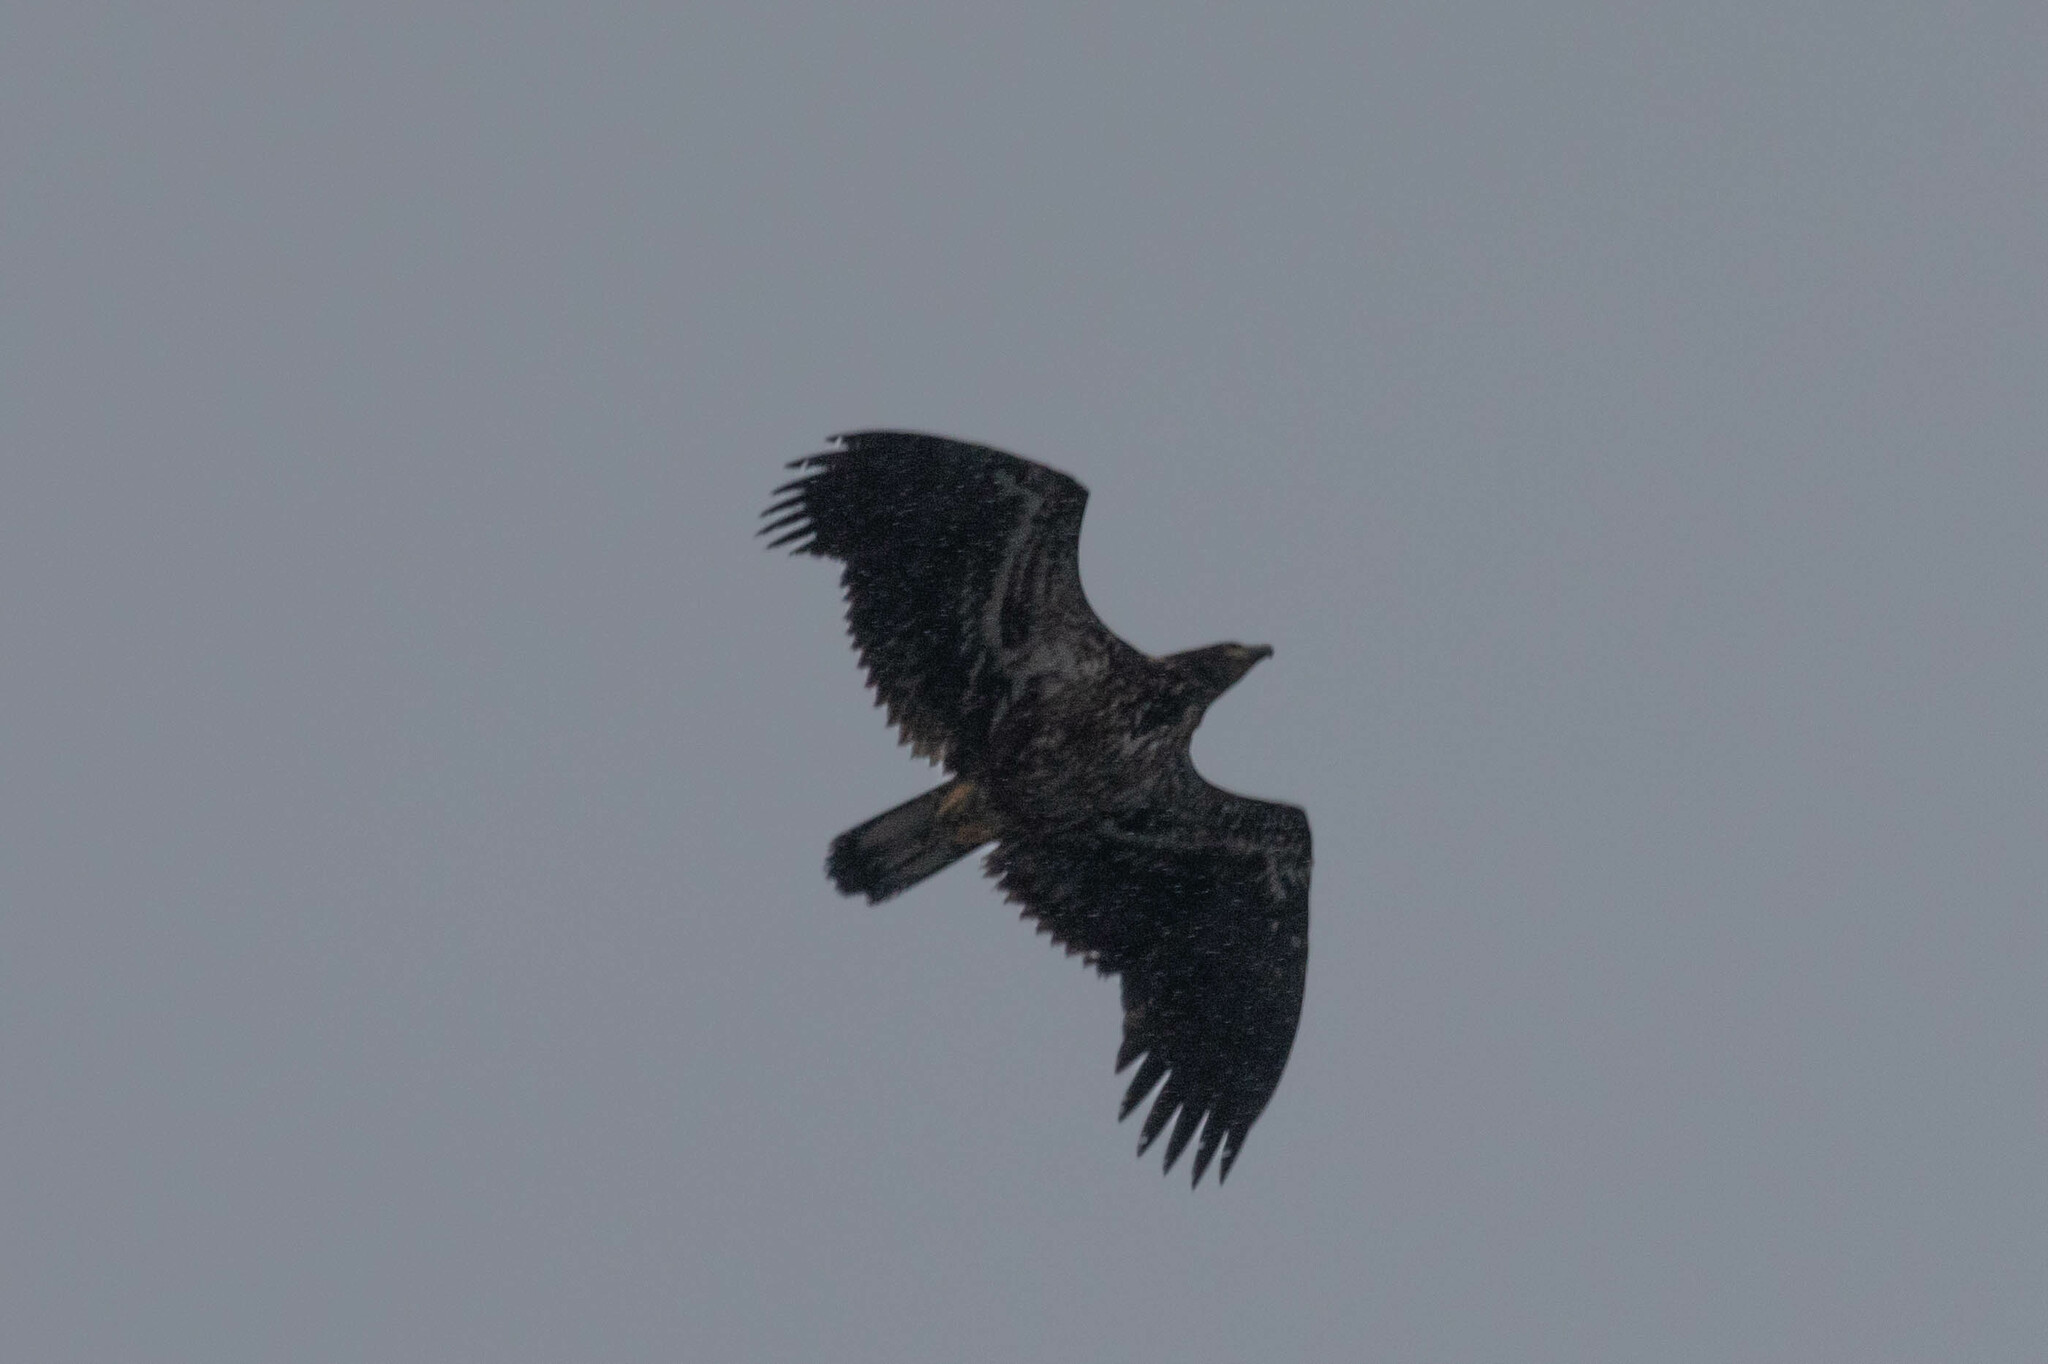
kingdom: Animalia
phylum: Chordata
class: Aves
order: Accipitriformes
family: Accipitridae
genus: Haliaeetus
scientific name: Haliaeetus leucocephalus
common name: Bald eagle
